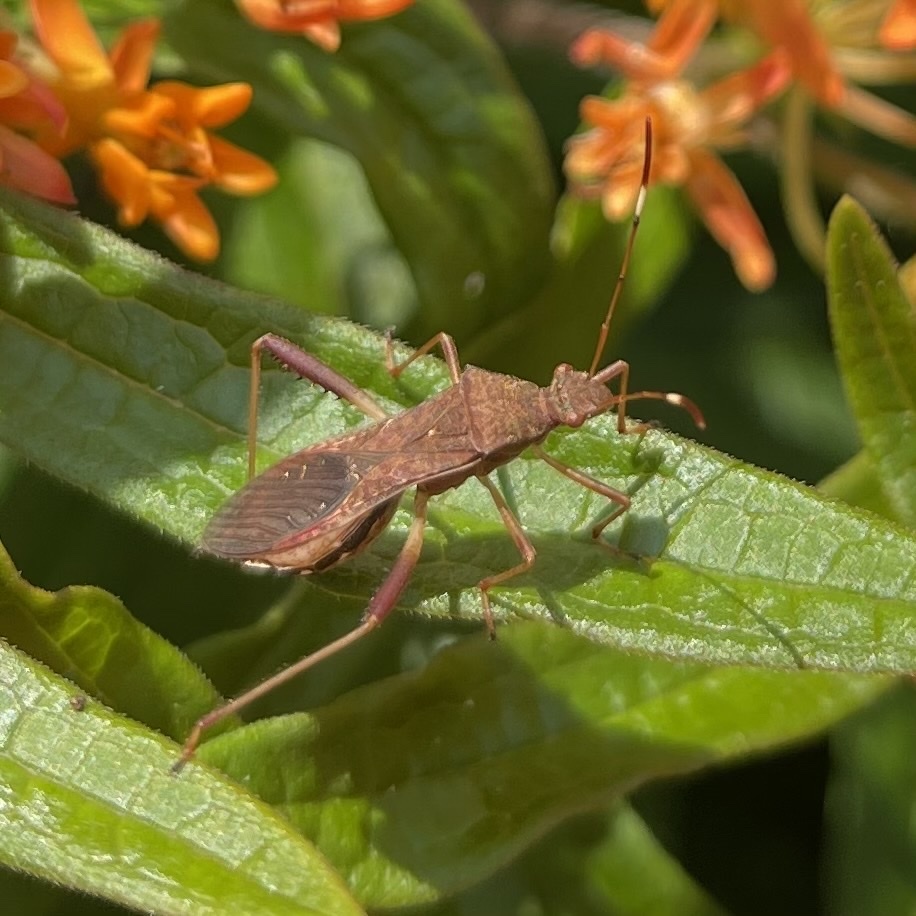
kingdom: Animalia
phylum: Arthropoda
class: Insecta
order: Hemiptera
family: Alydidae
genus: Megalotomus
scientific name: Megalotomus quinquespinosus
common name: Lupine bug
